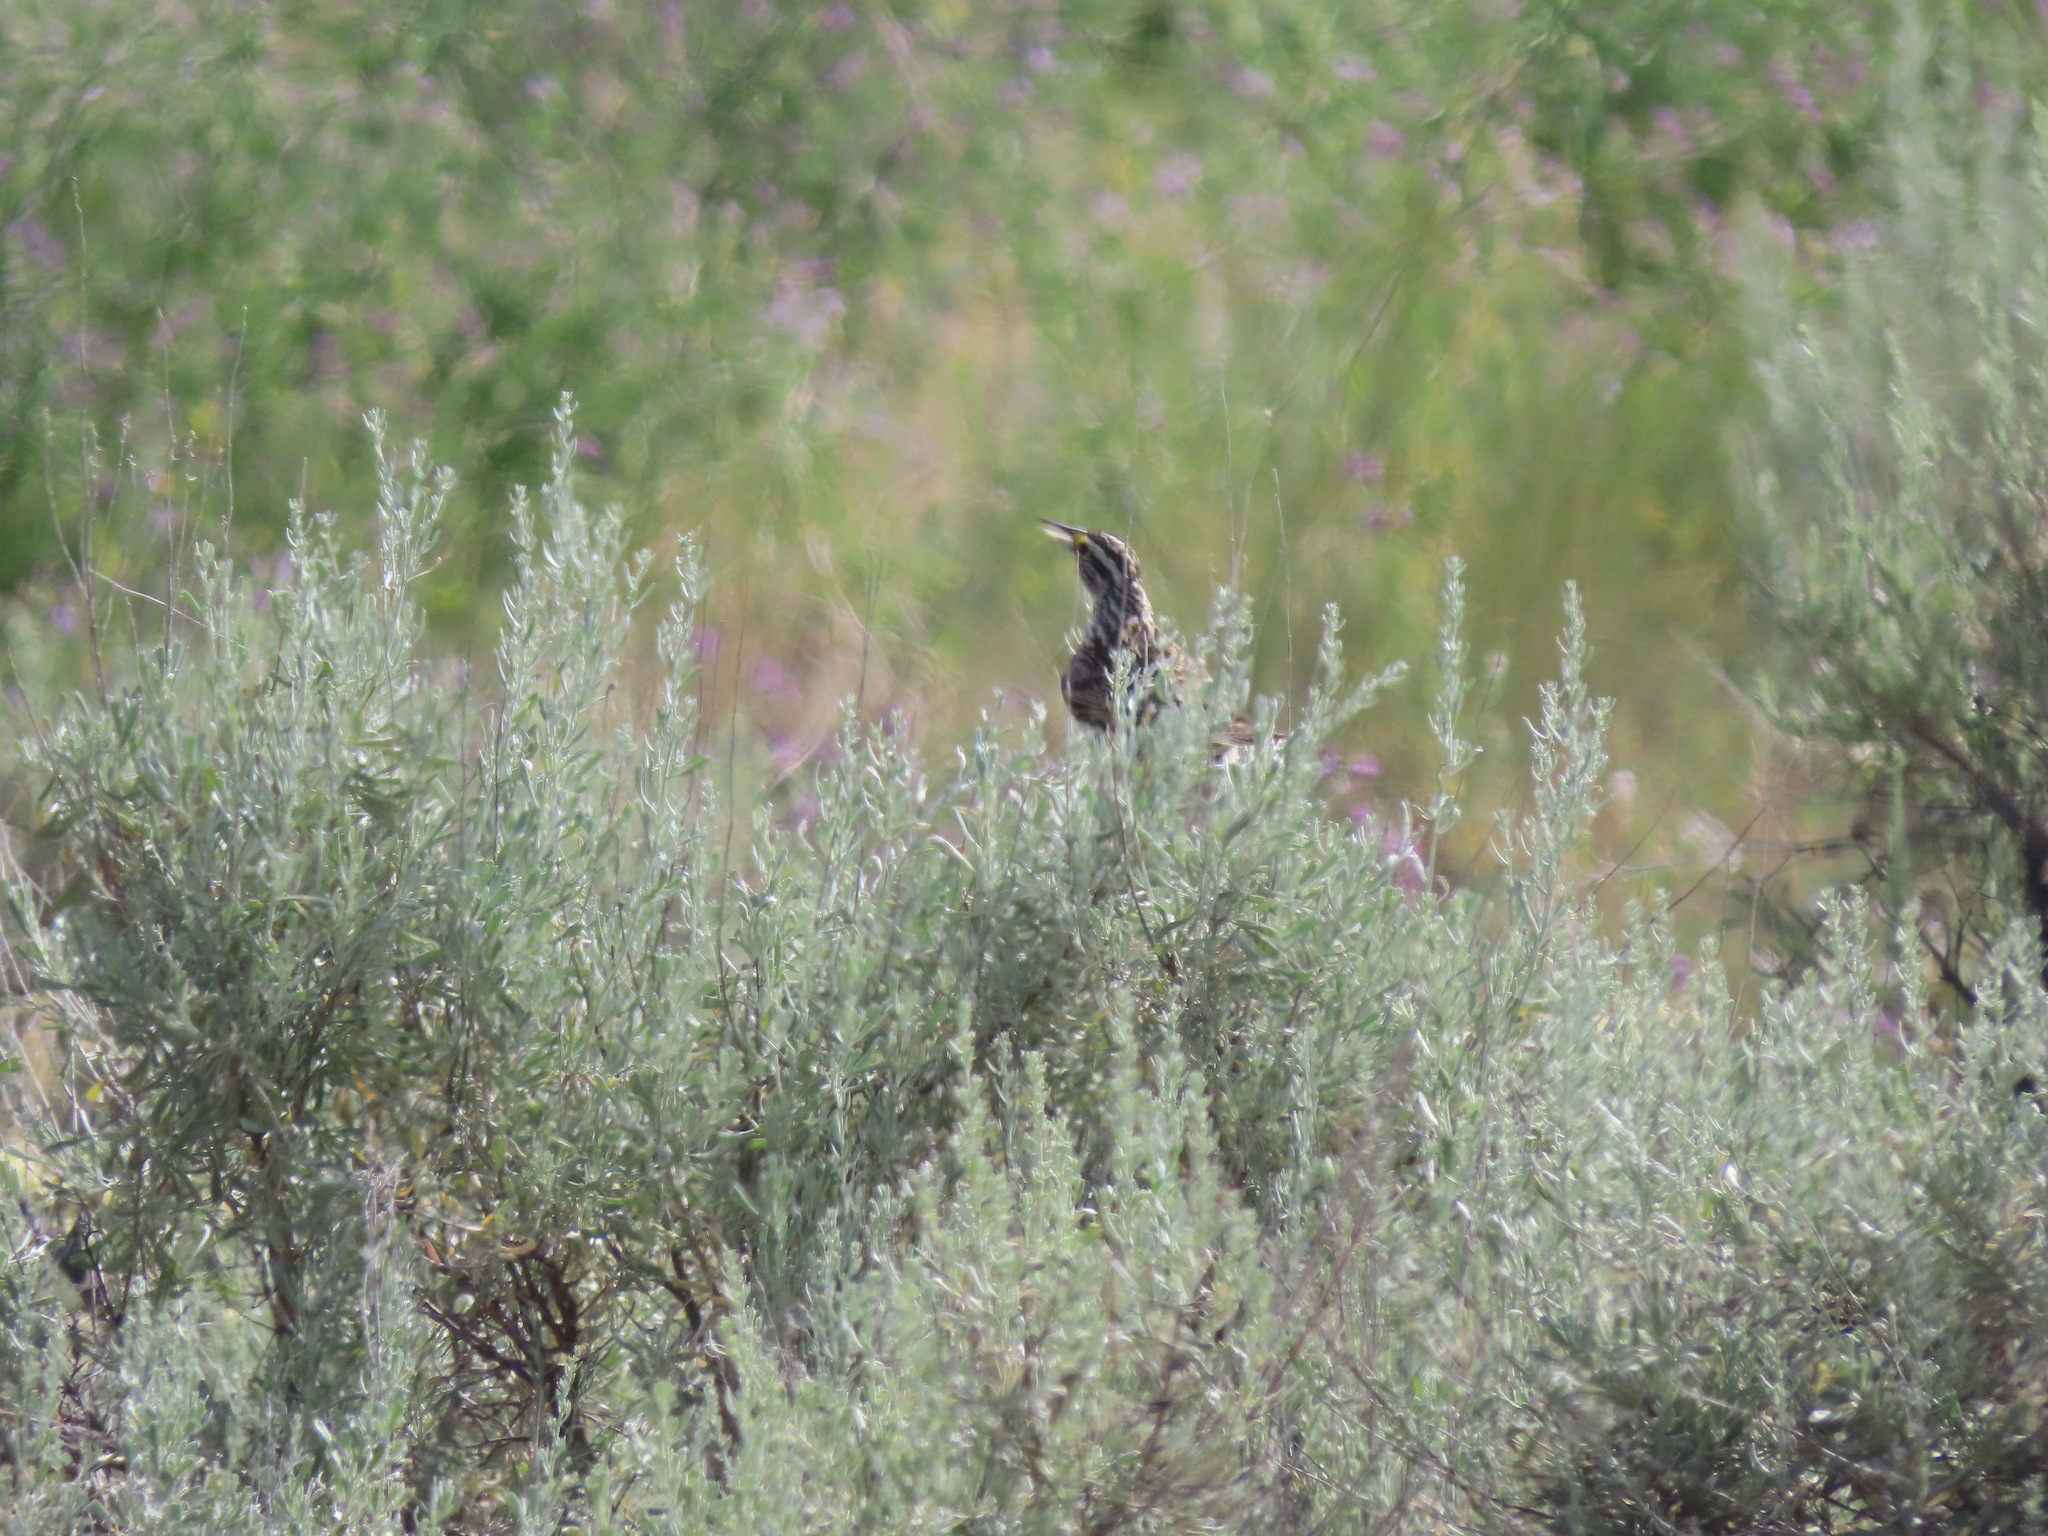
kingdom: Animalia
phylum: Chordata
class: Aves
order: Passeriformes
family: Icteridae
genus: Sturnella
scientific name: Sturnella neglecta
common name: Western meadowlark
